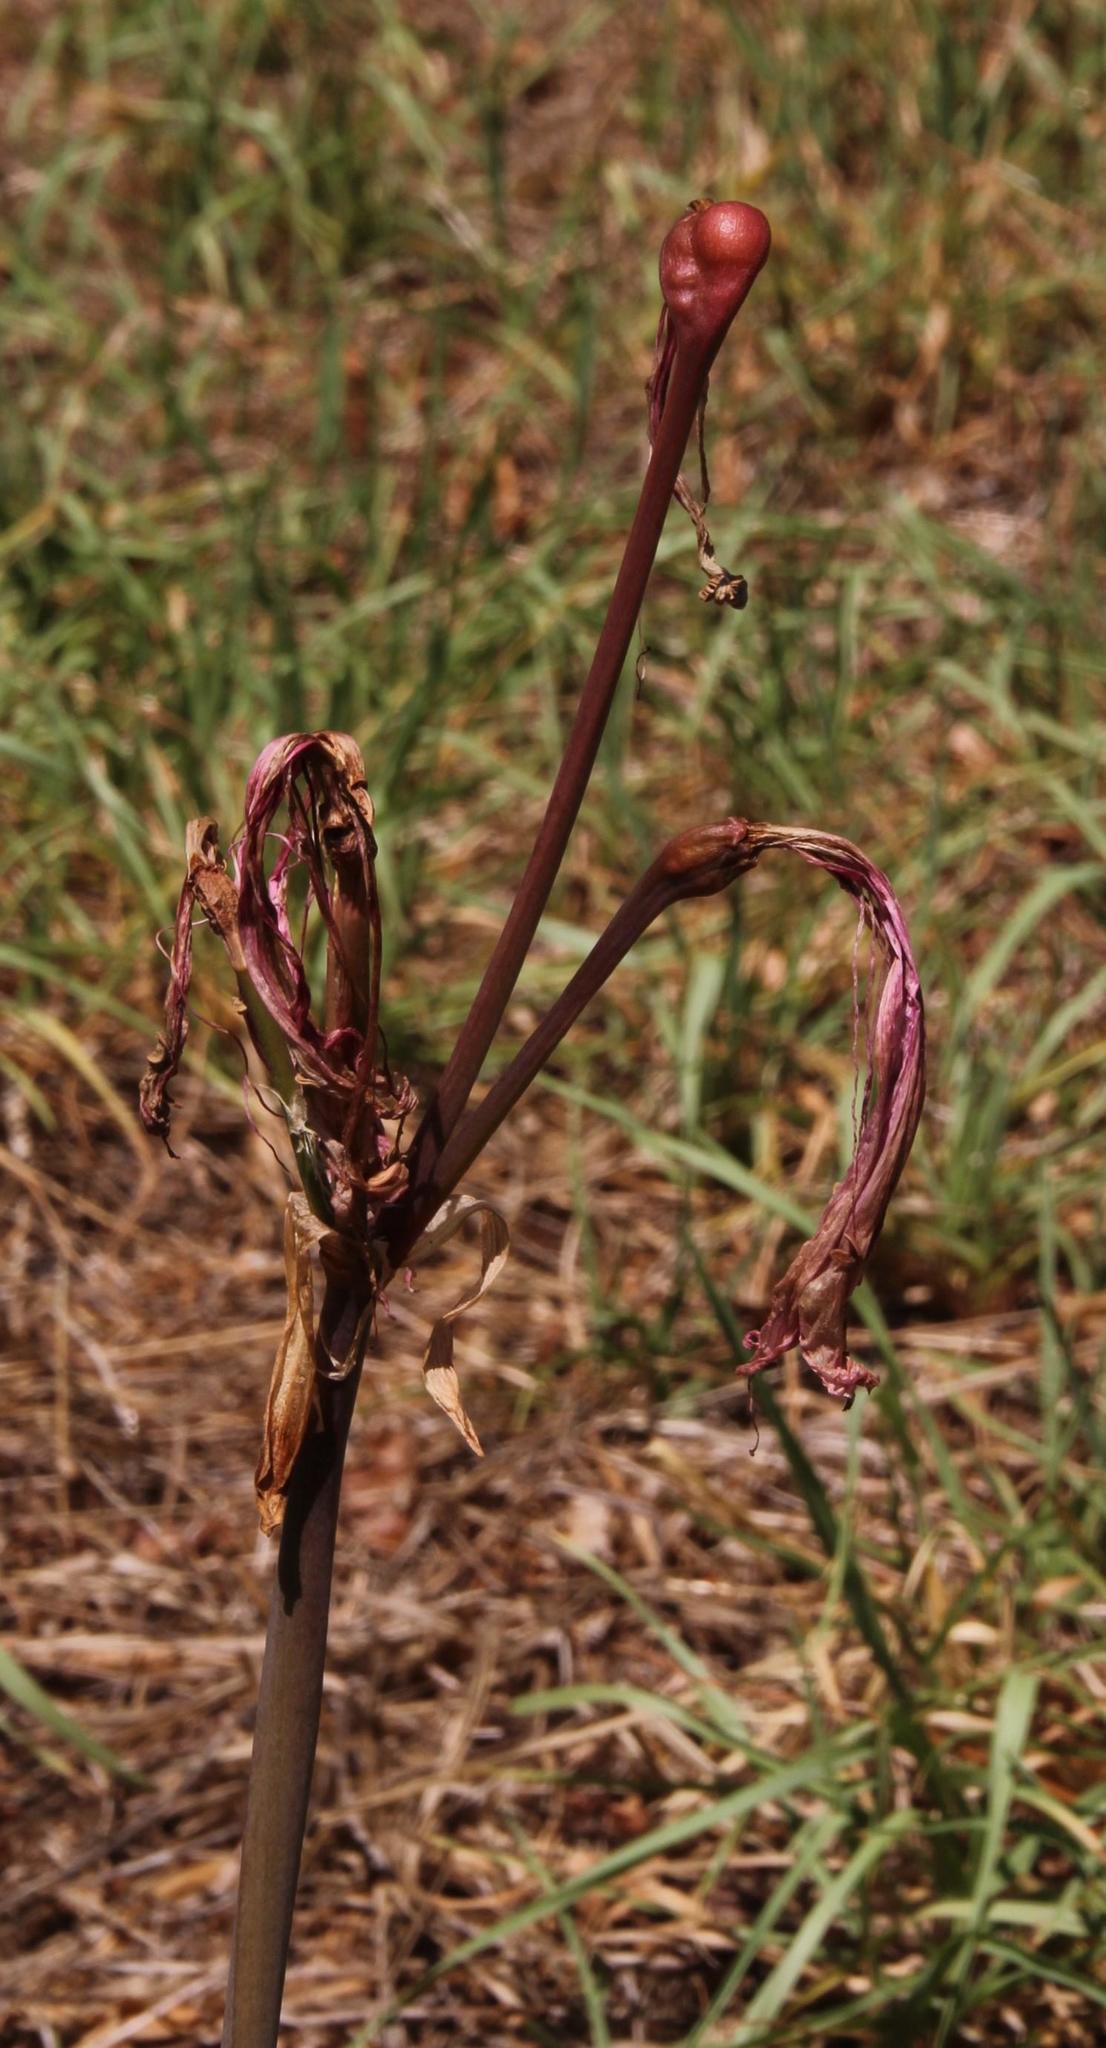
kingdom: Plantae
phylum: Tracheophyta
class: Liliopsida
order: Asparagales
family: Amaryllidaceae
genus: Amaryllis
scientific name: Amaryllis belladonna
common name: Jersey lily
